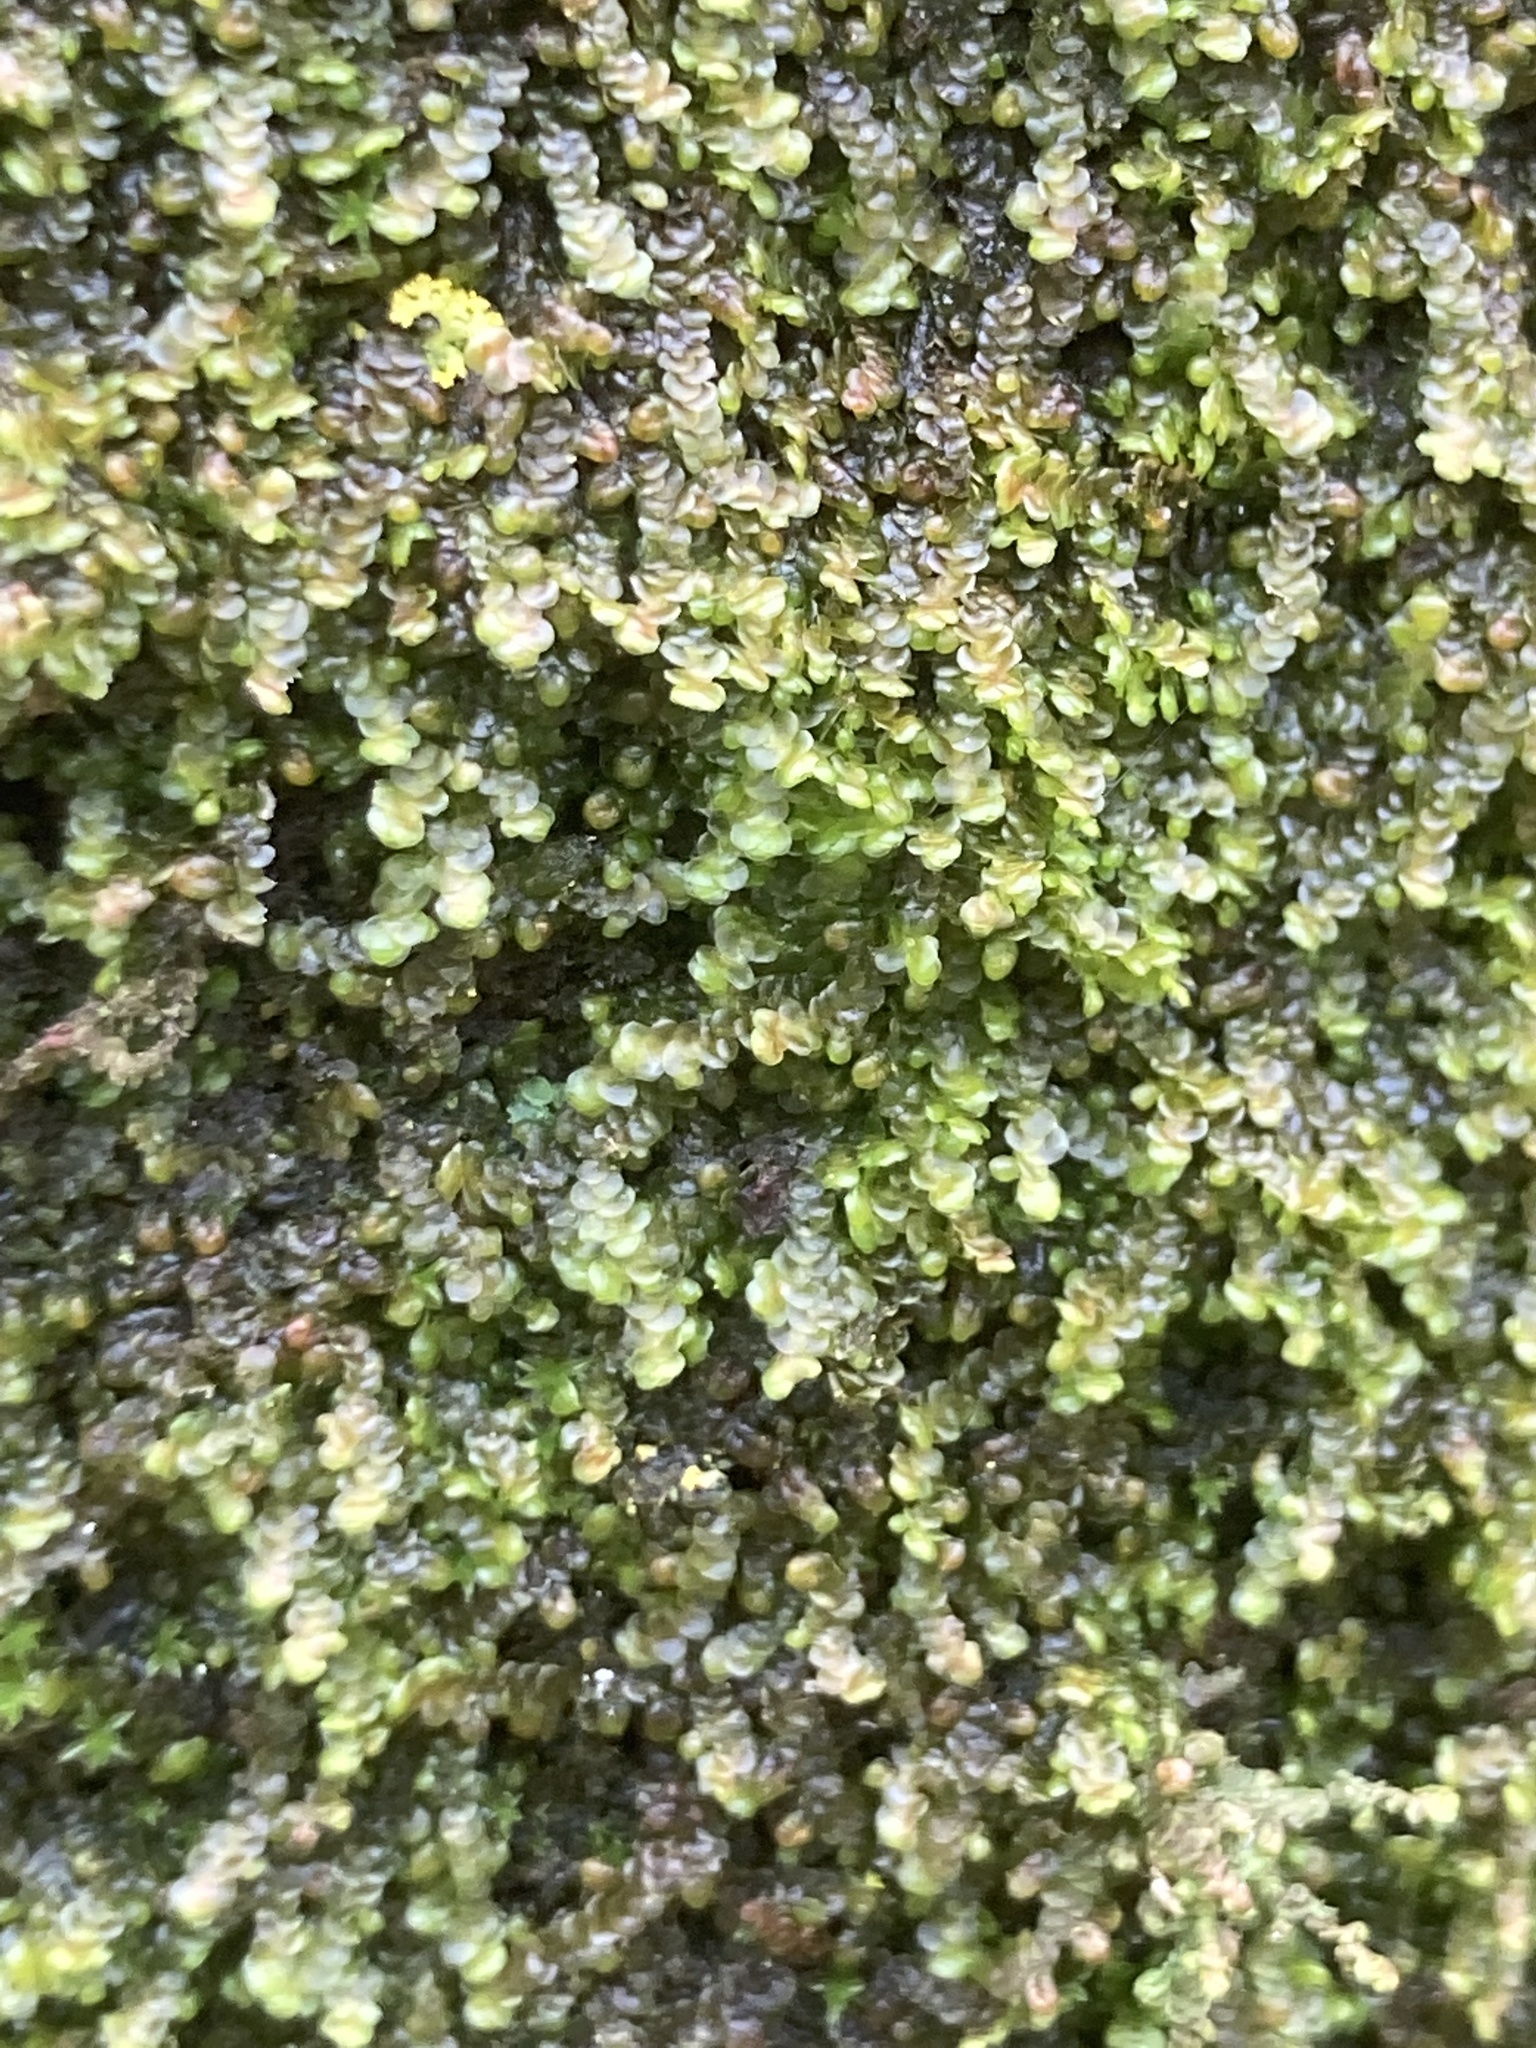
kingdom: Plantae
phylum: Marchantiophyta
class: Jungermanniopsida
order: Porellales
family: Frullaniaceae
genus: Frullania
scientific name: Frullania dilatata
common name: Dilated scalewort
